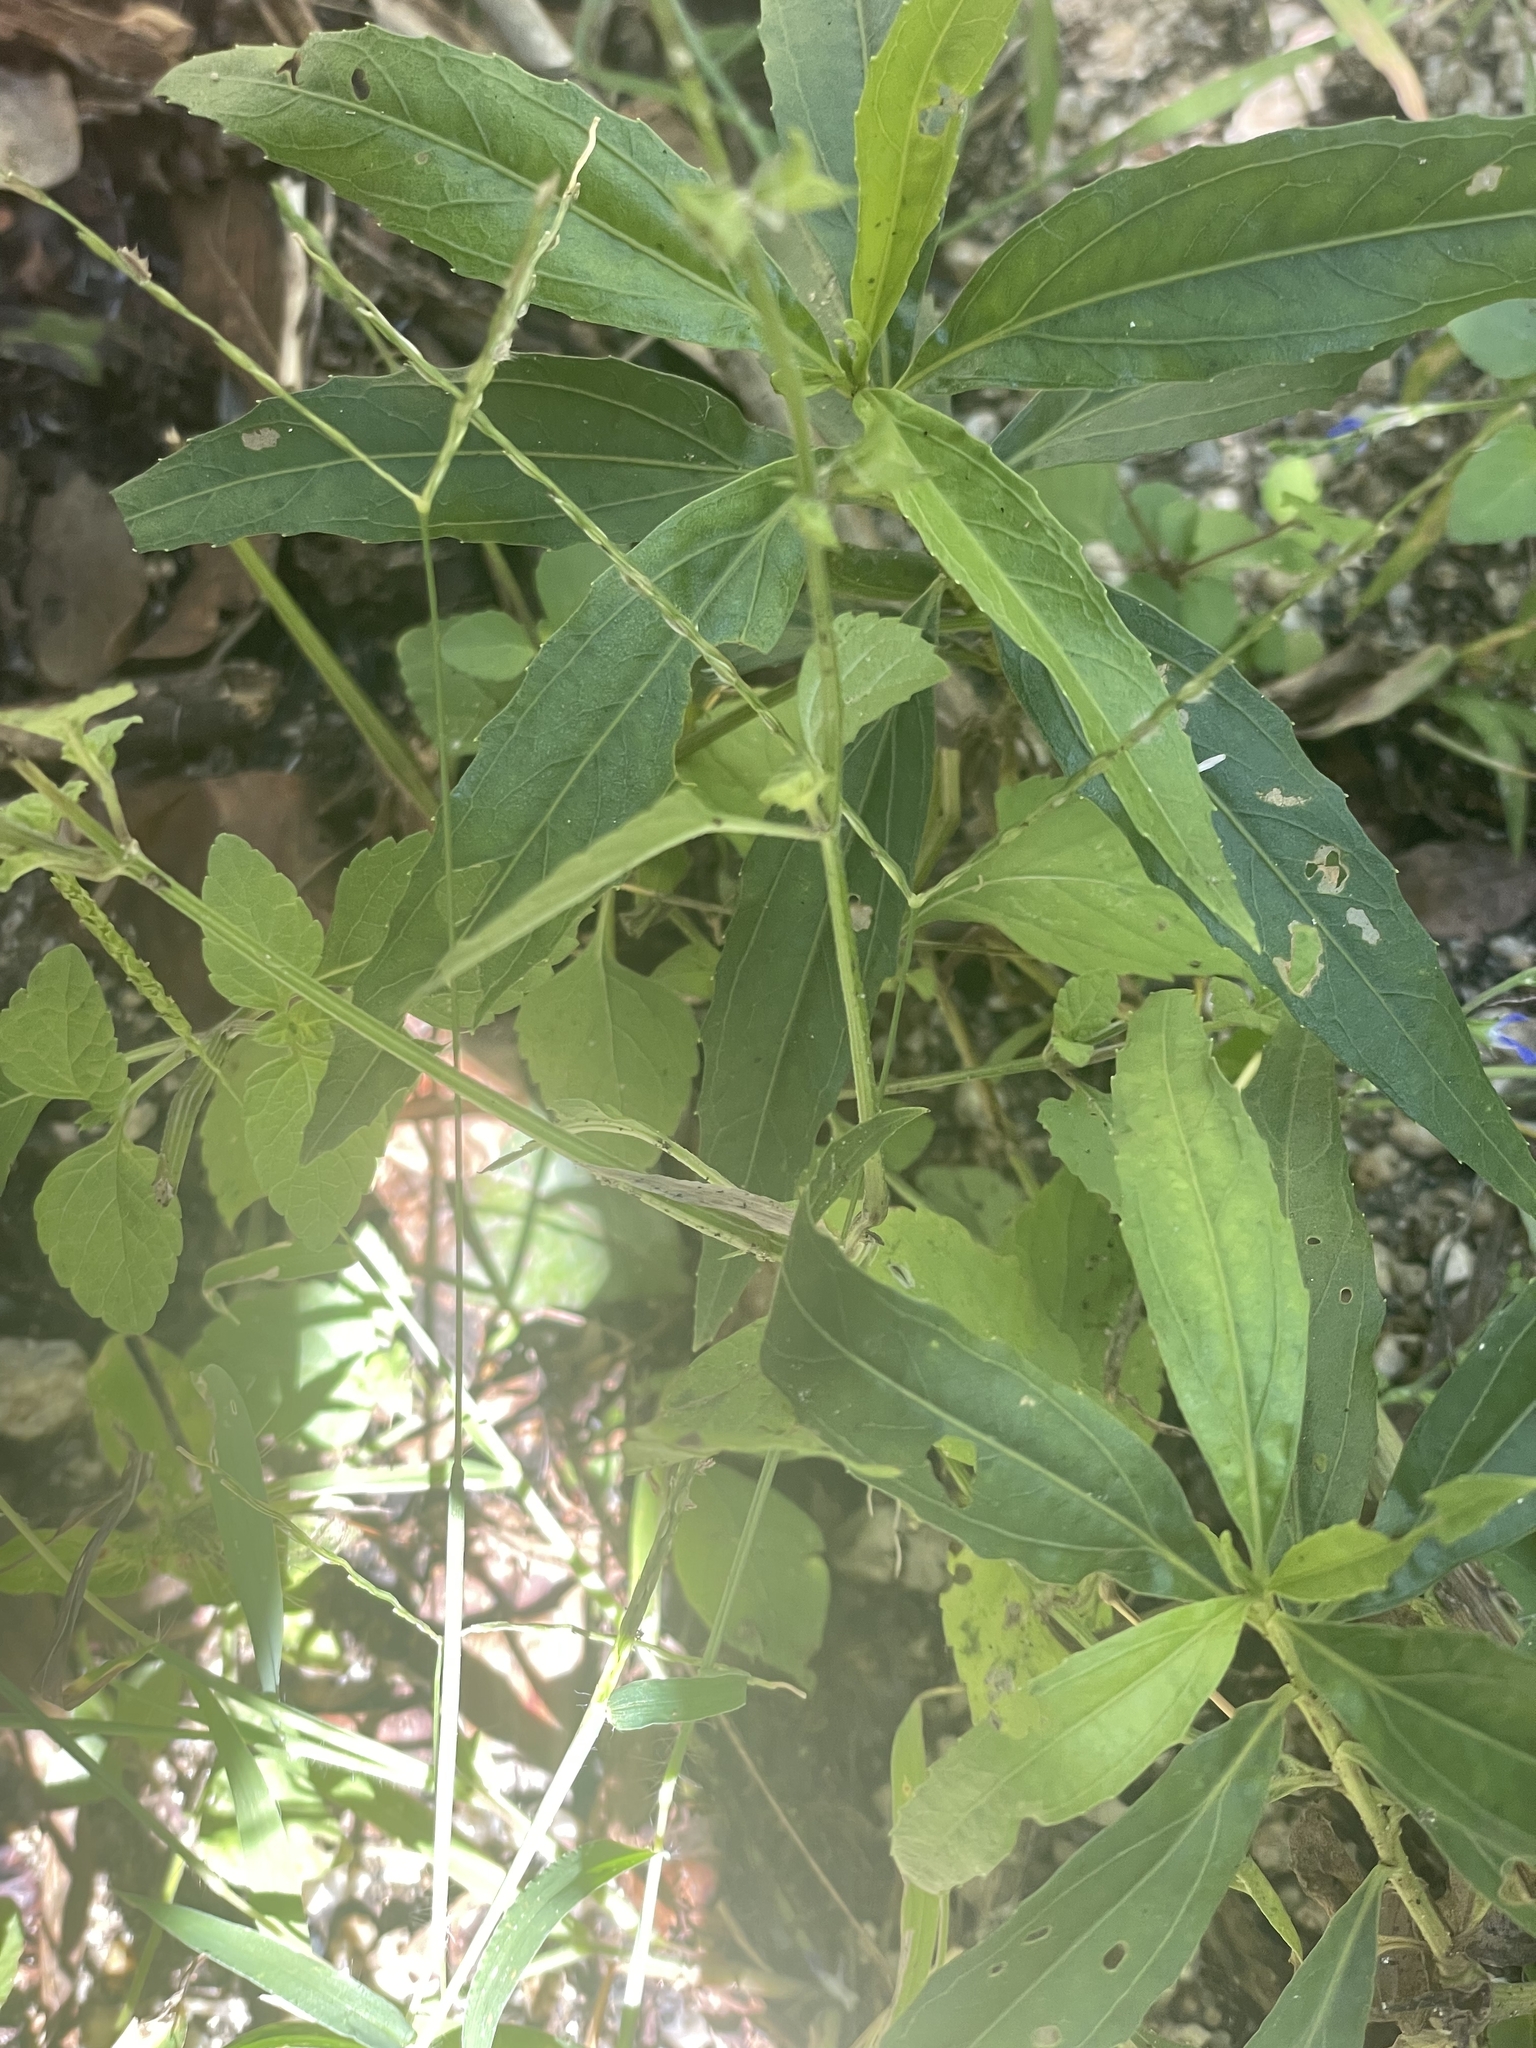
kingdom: Plantae
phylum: Tracheophyta
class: Magnoliopsida
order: Lamiales
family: Lamiaceae
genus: Salvia
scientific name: Salvia misella
